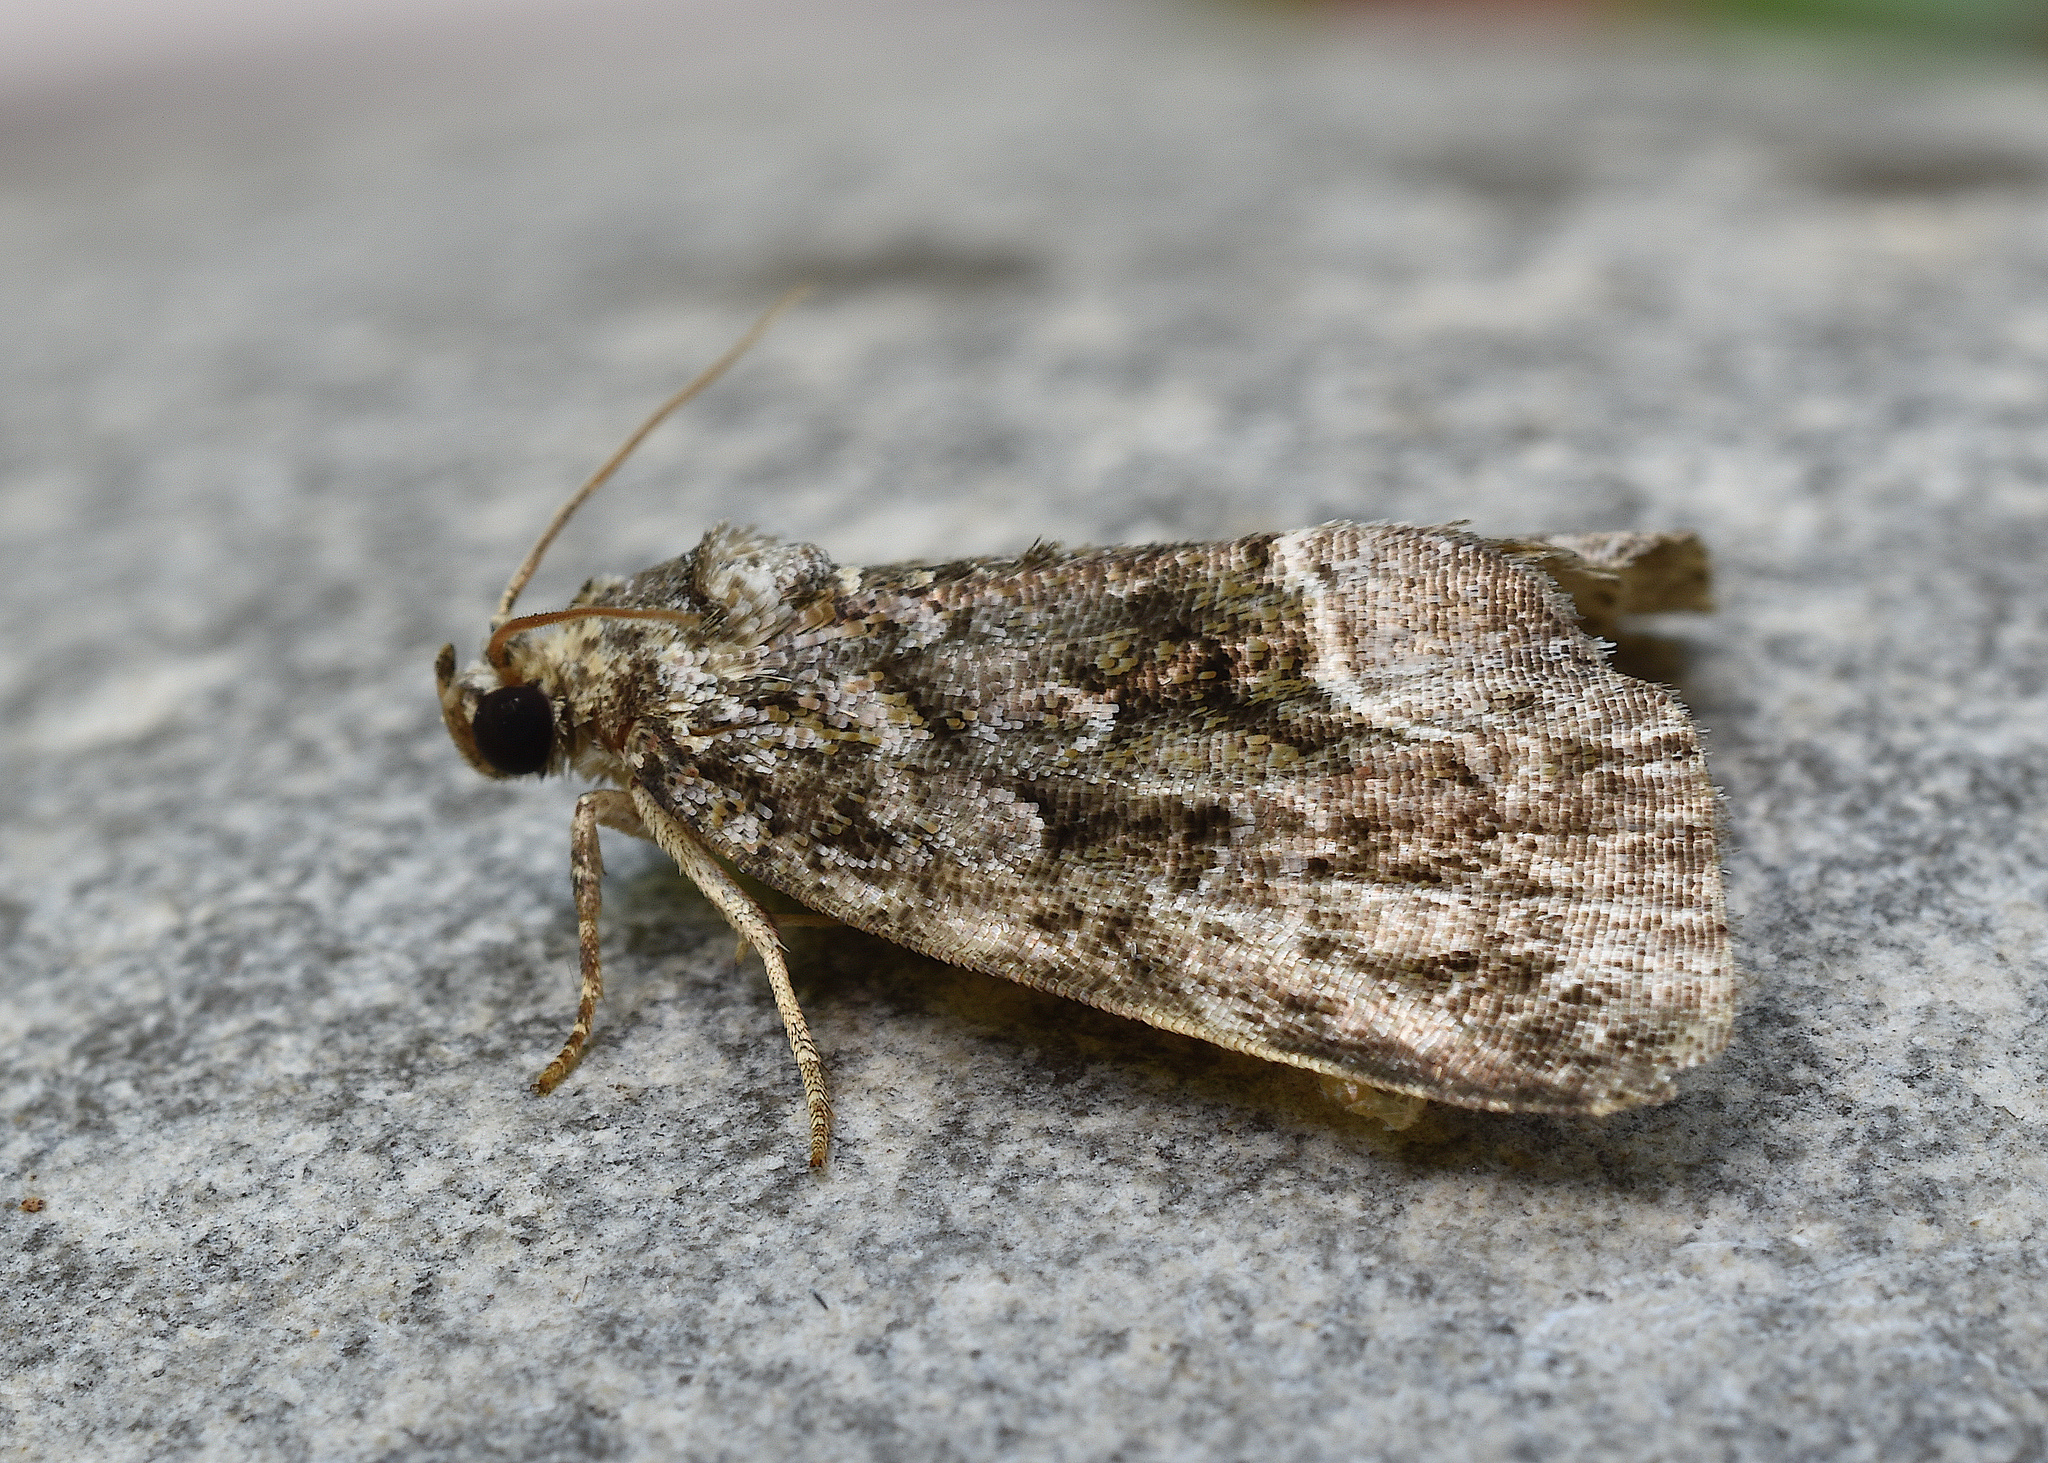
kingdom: Animalia
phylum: Arthropoda
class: Insecta
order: Lepidoptera
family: Noctuidae
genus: Protodeltote
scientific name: Protodeltote muscosula
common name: Large mossy glyph
